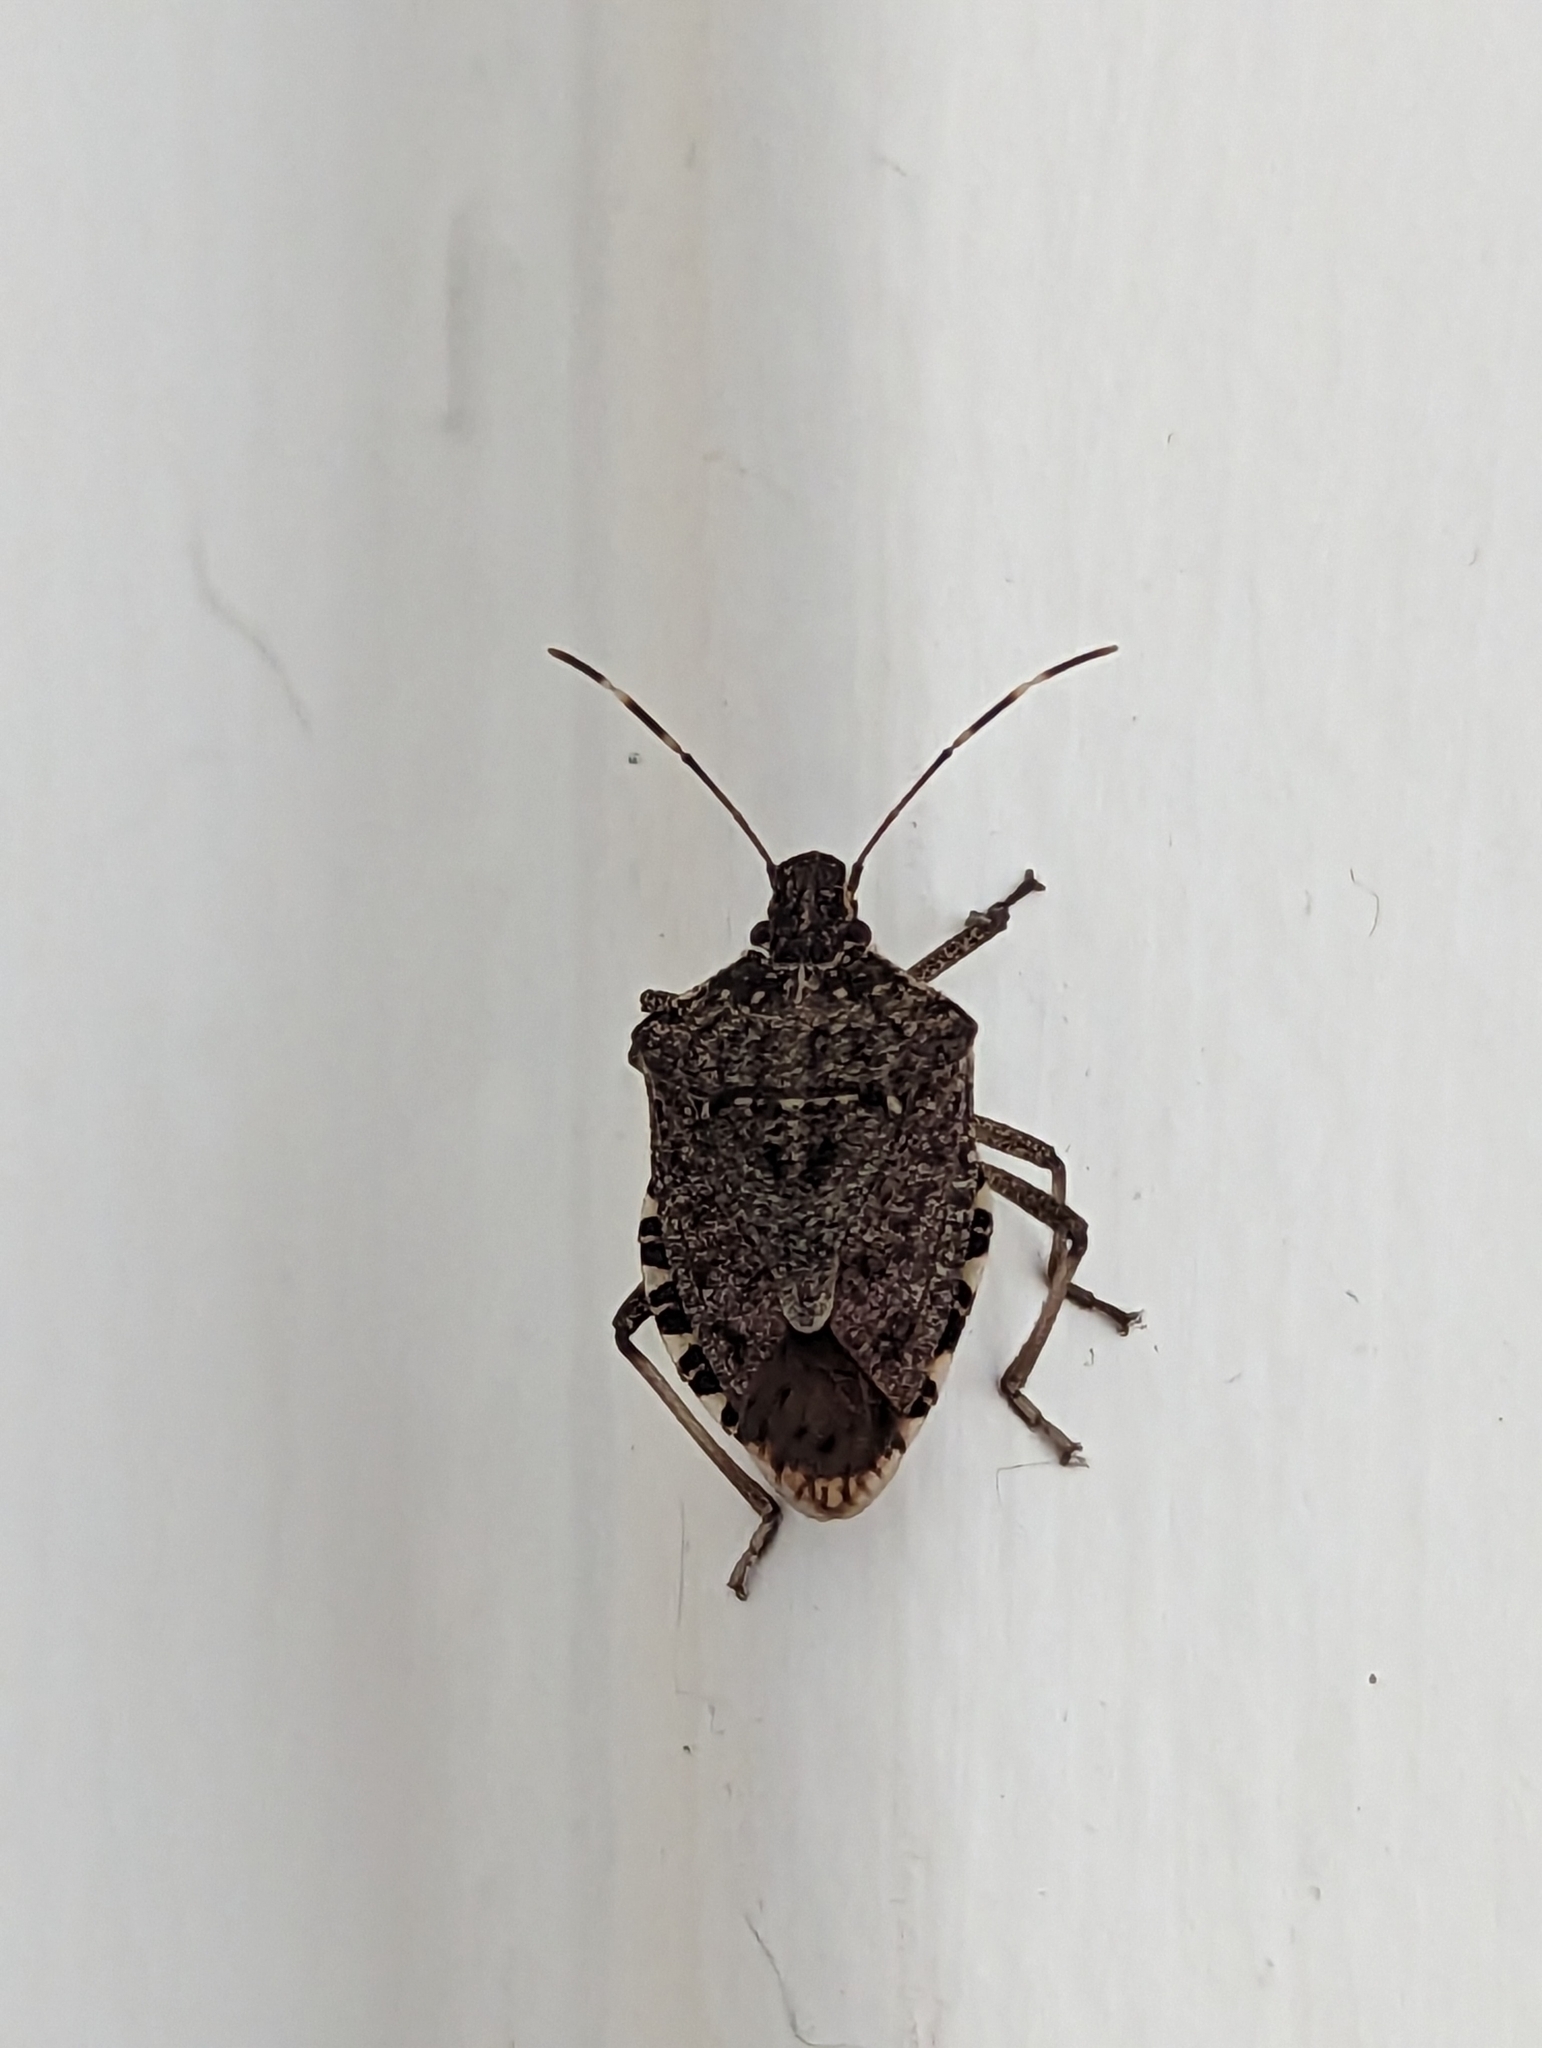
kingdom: Animalia
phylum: Arthropoda
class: Insecta
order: Hemiptera
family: Pentatomidae
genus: Halyomorpha
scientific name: Halyomorpha halys
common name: Brown marmorated stink bug
